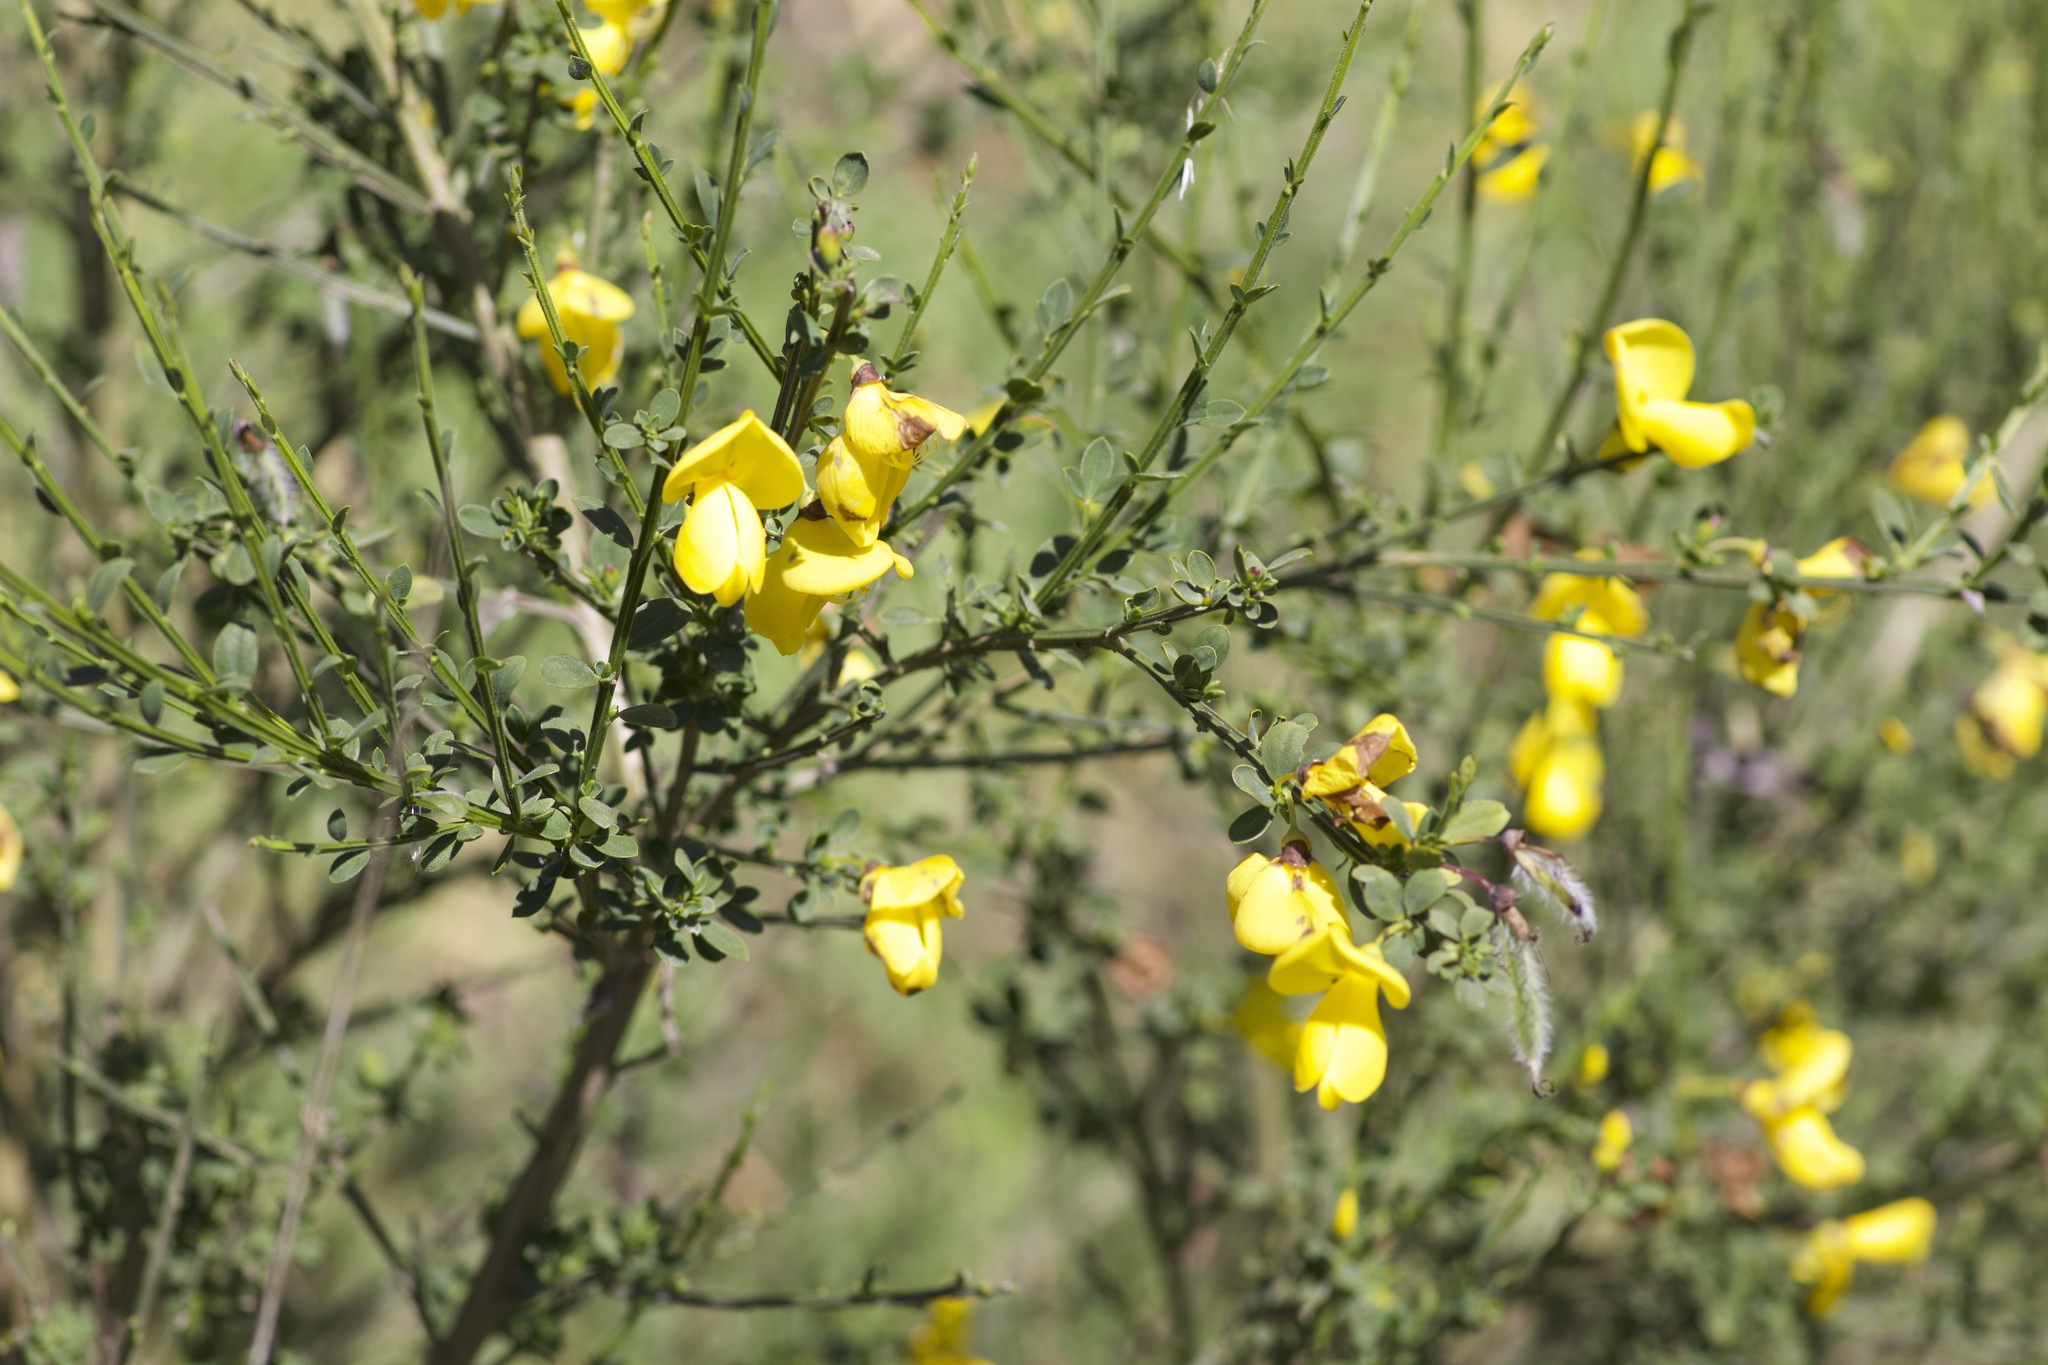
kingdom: Plantae
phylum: Tracheophyta
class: Magnoliopsida
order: Fabales
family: Fabaceae
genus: Cytisus
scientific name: Cytisus scoparius
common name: Scotch broom
